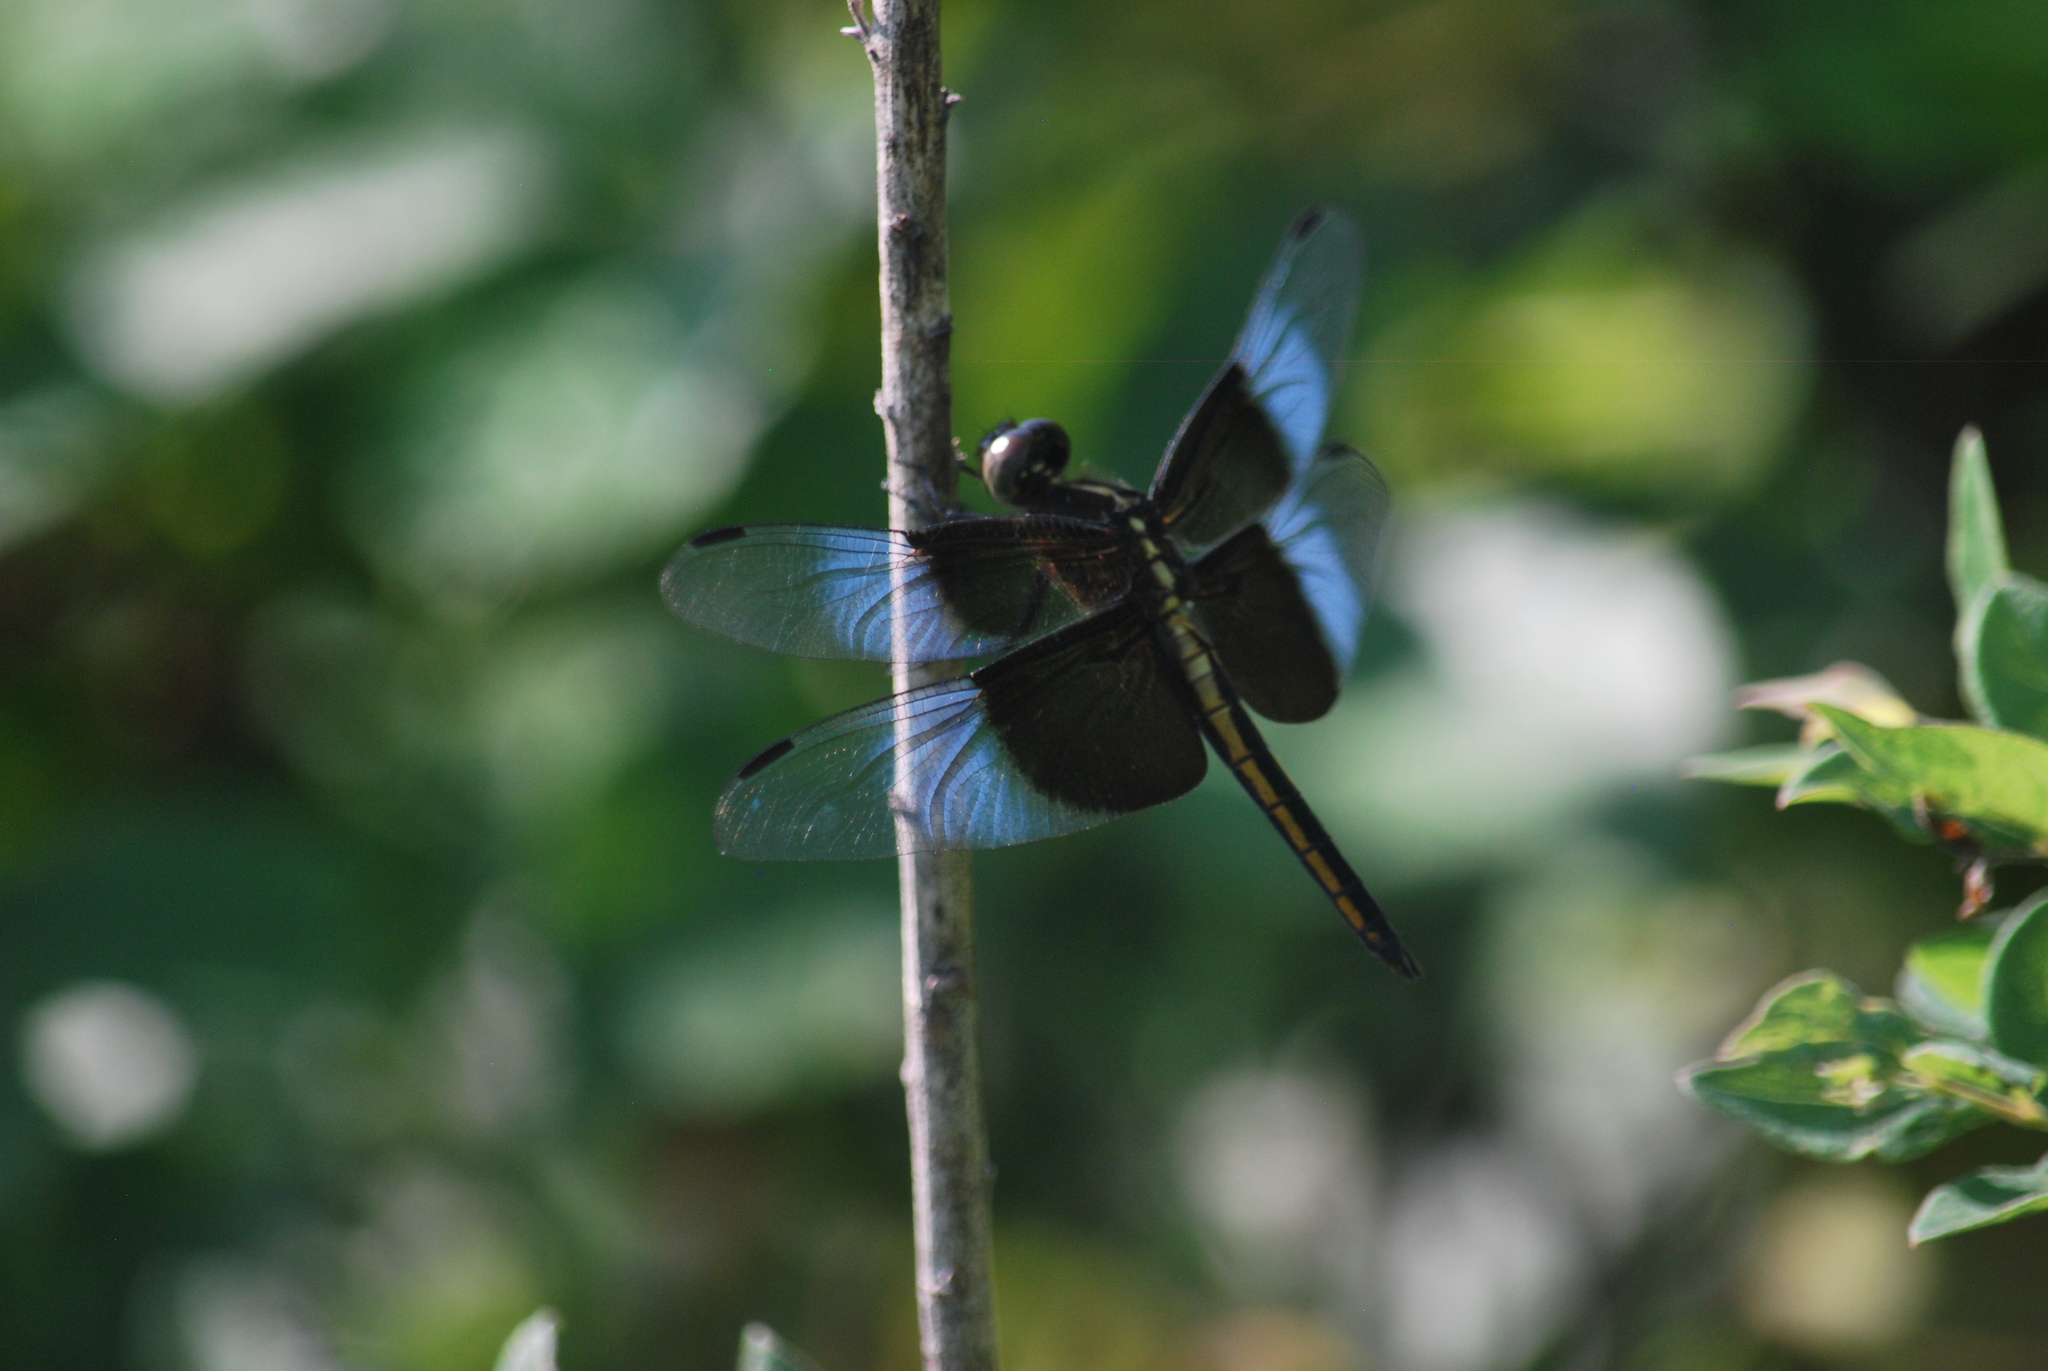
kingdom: Animalia
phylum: Arthropoda
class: Insecta
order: Odonata
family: Libellulidae
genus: Libellula
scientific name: Libellula luctuosa
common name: Widow skimmer
